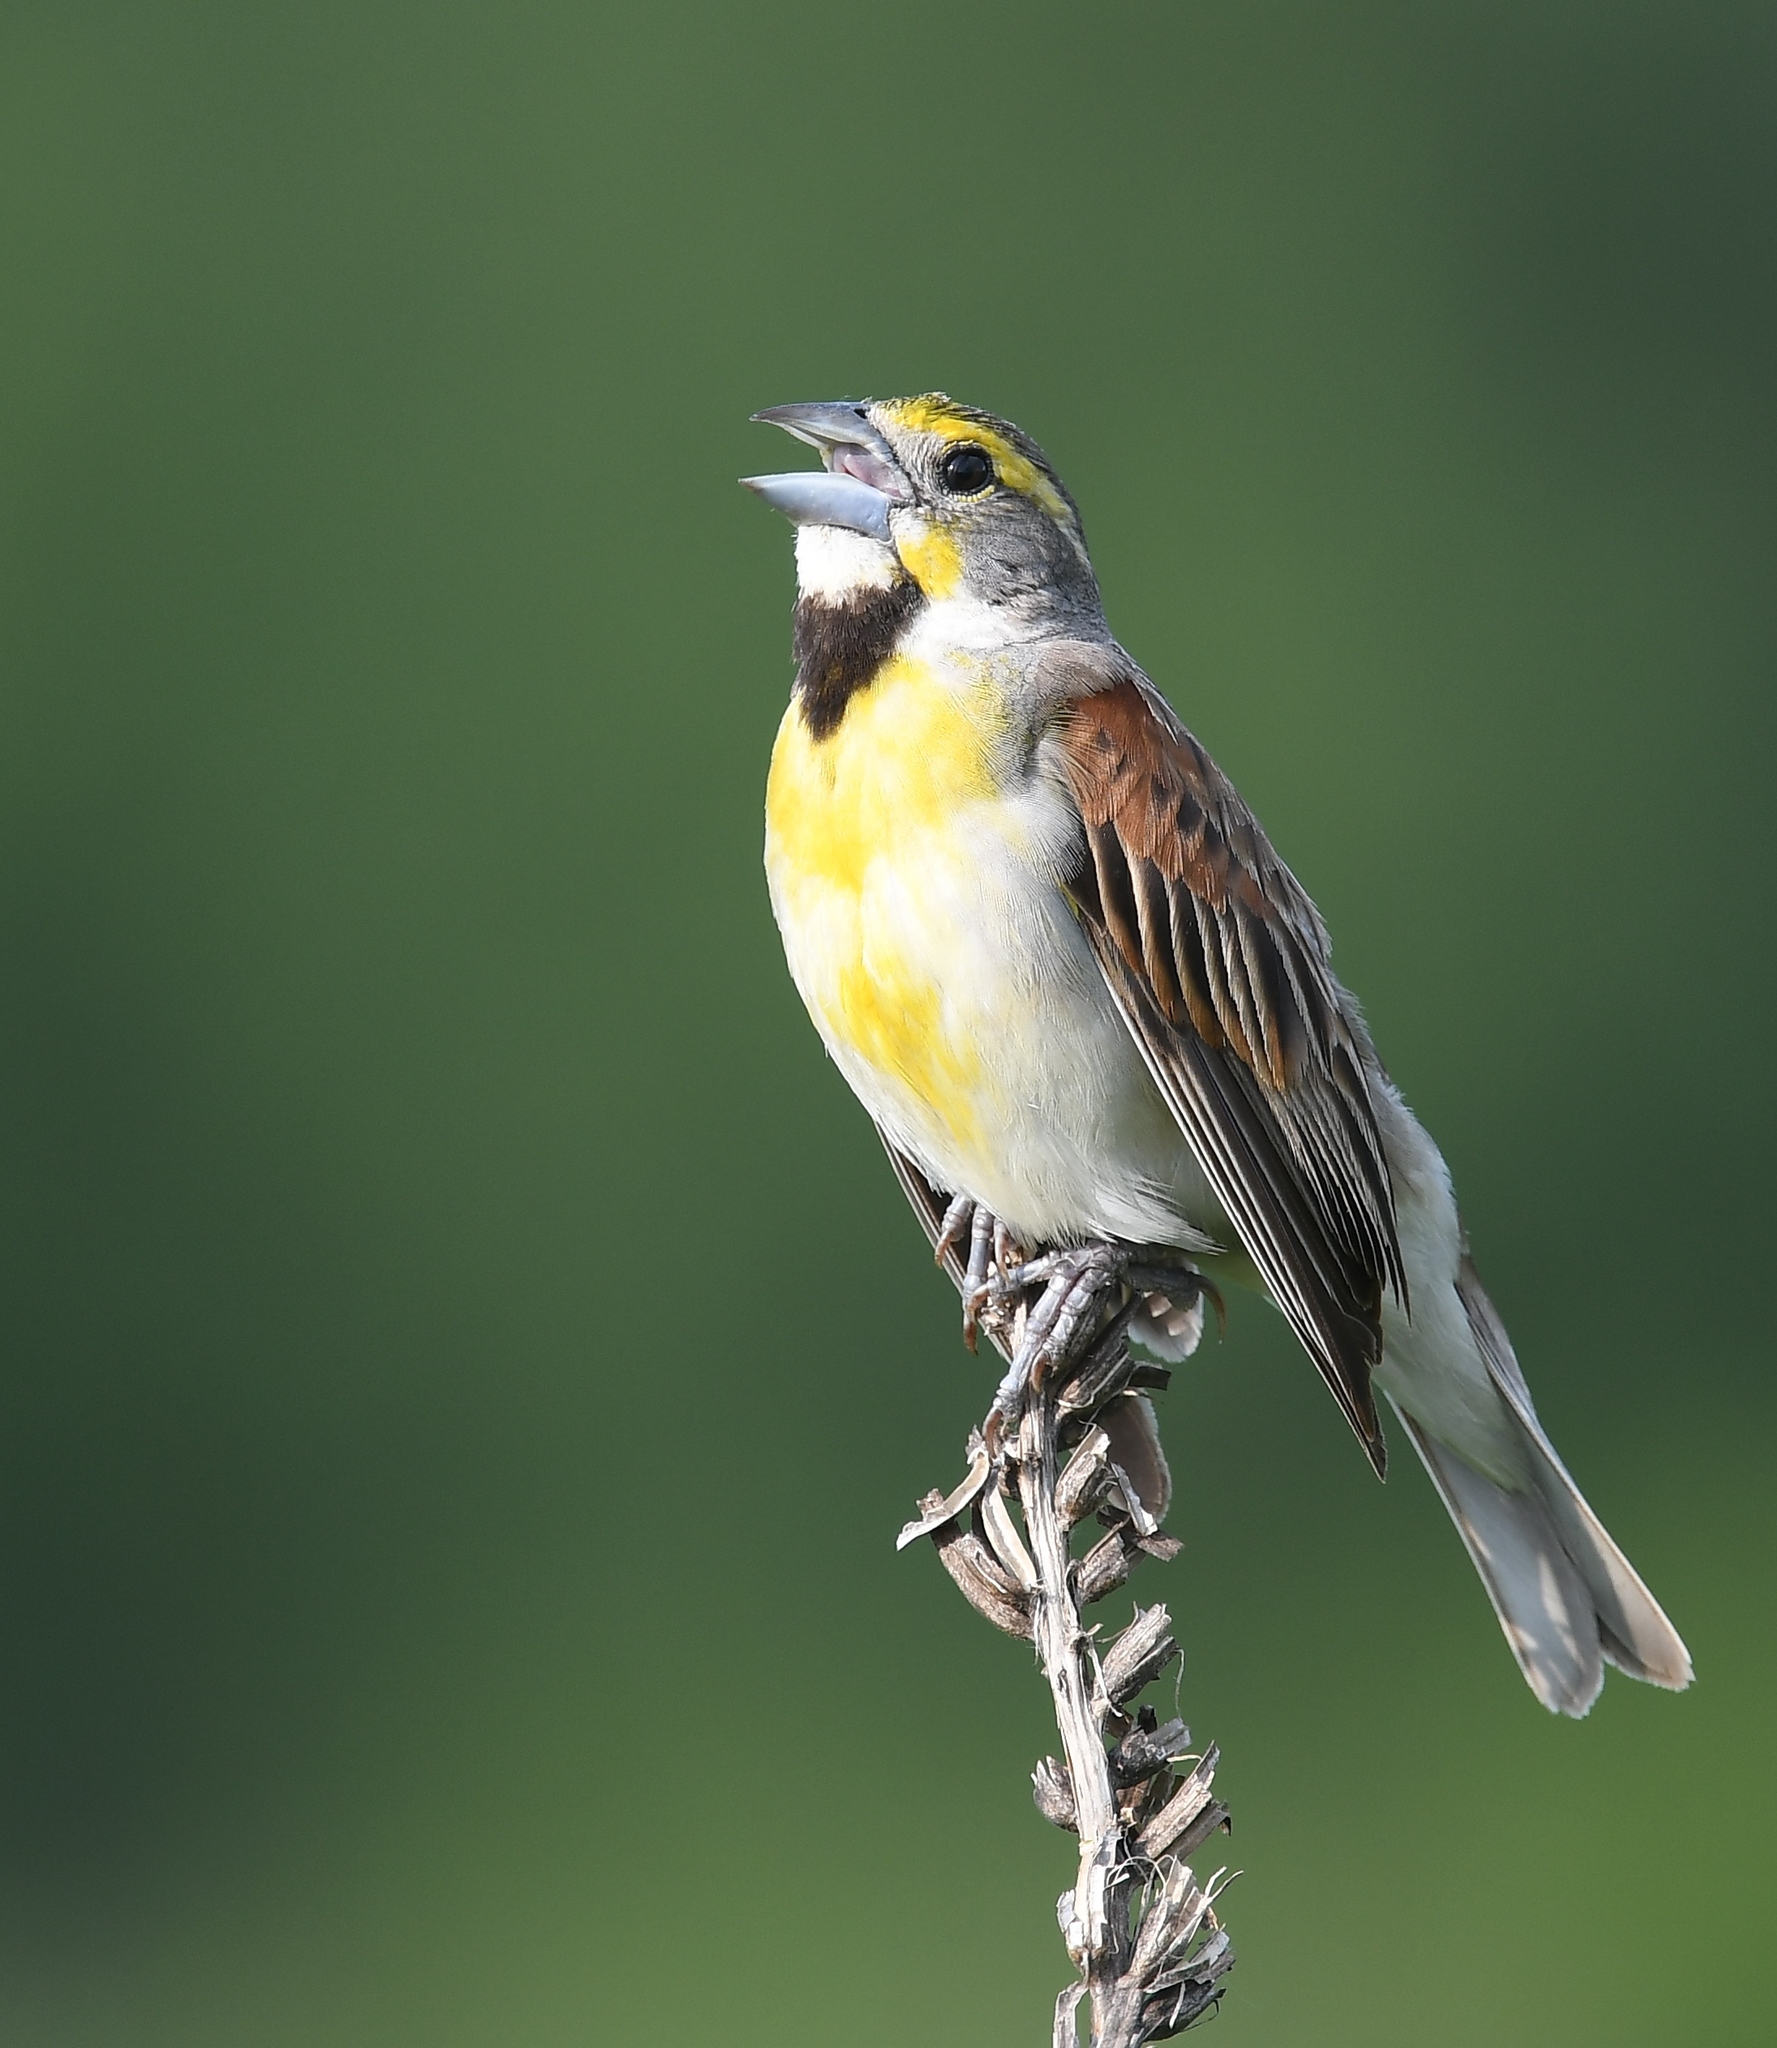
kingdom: Animalia
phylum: Chordata
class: Aves
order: Passeriformes
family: Cardinalidae
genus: Spiza
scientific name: Spiza americana
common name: Dickcissel
